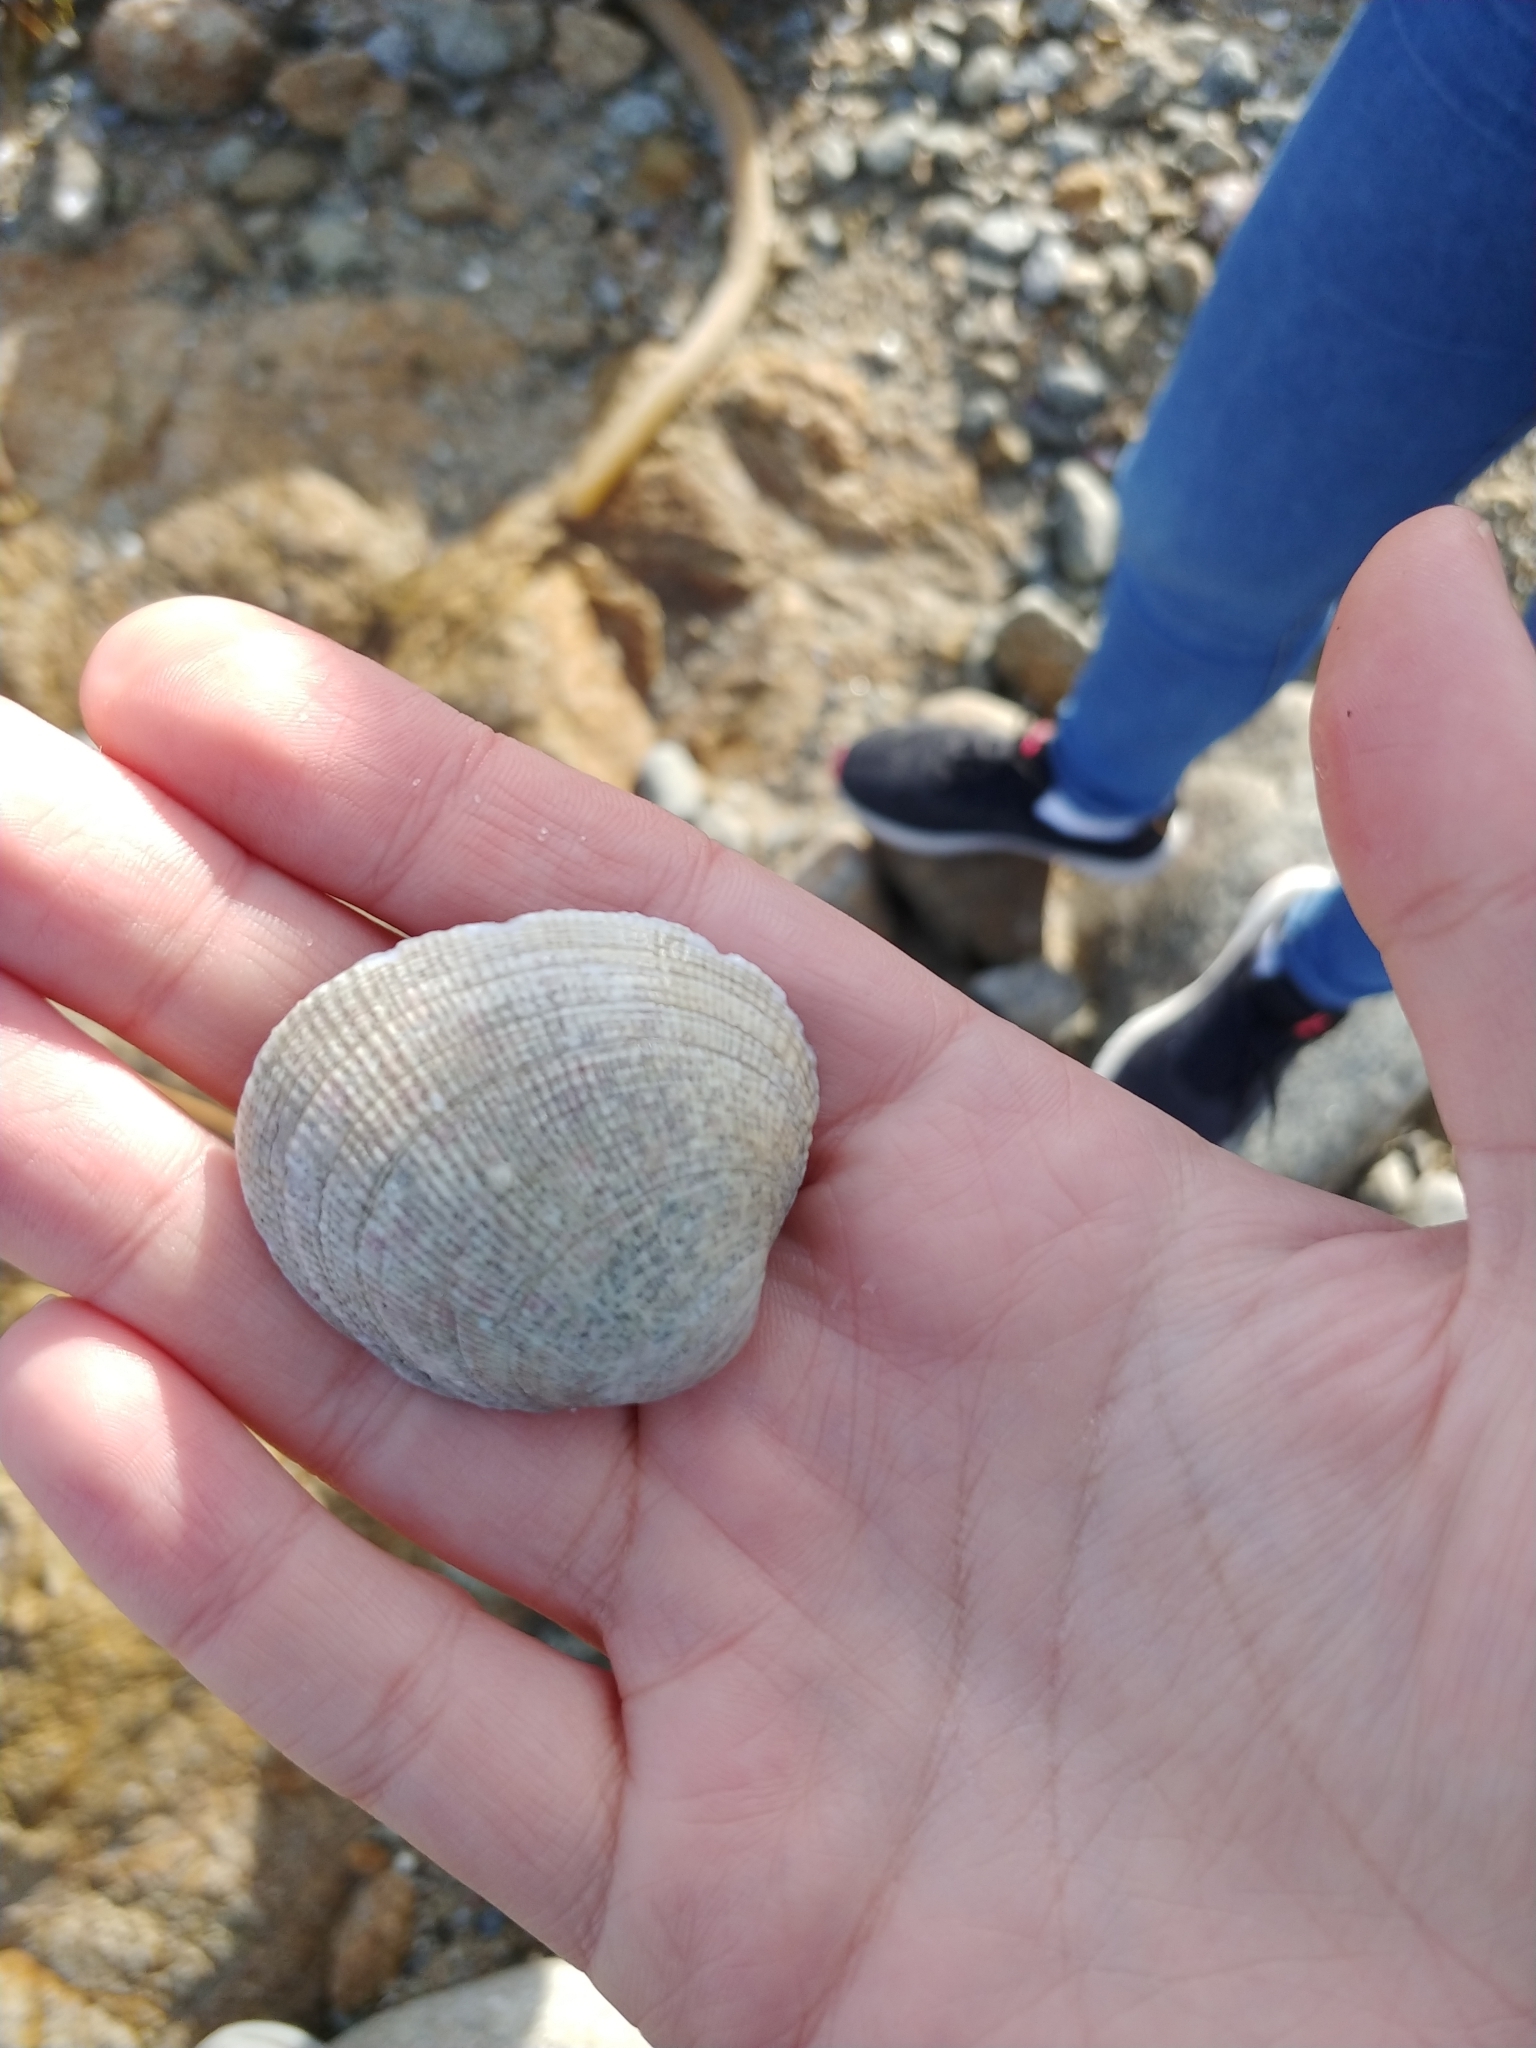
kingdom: Animalia
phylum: Mollusca
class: Bivalvia
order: Venerida
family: Veneridae
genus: Leukoma
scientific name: Leukoma staminea
